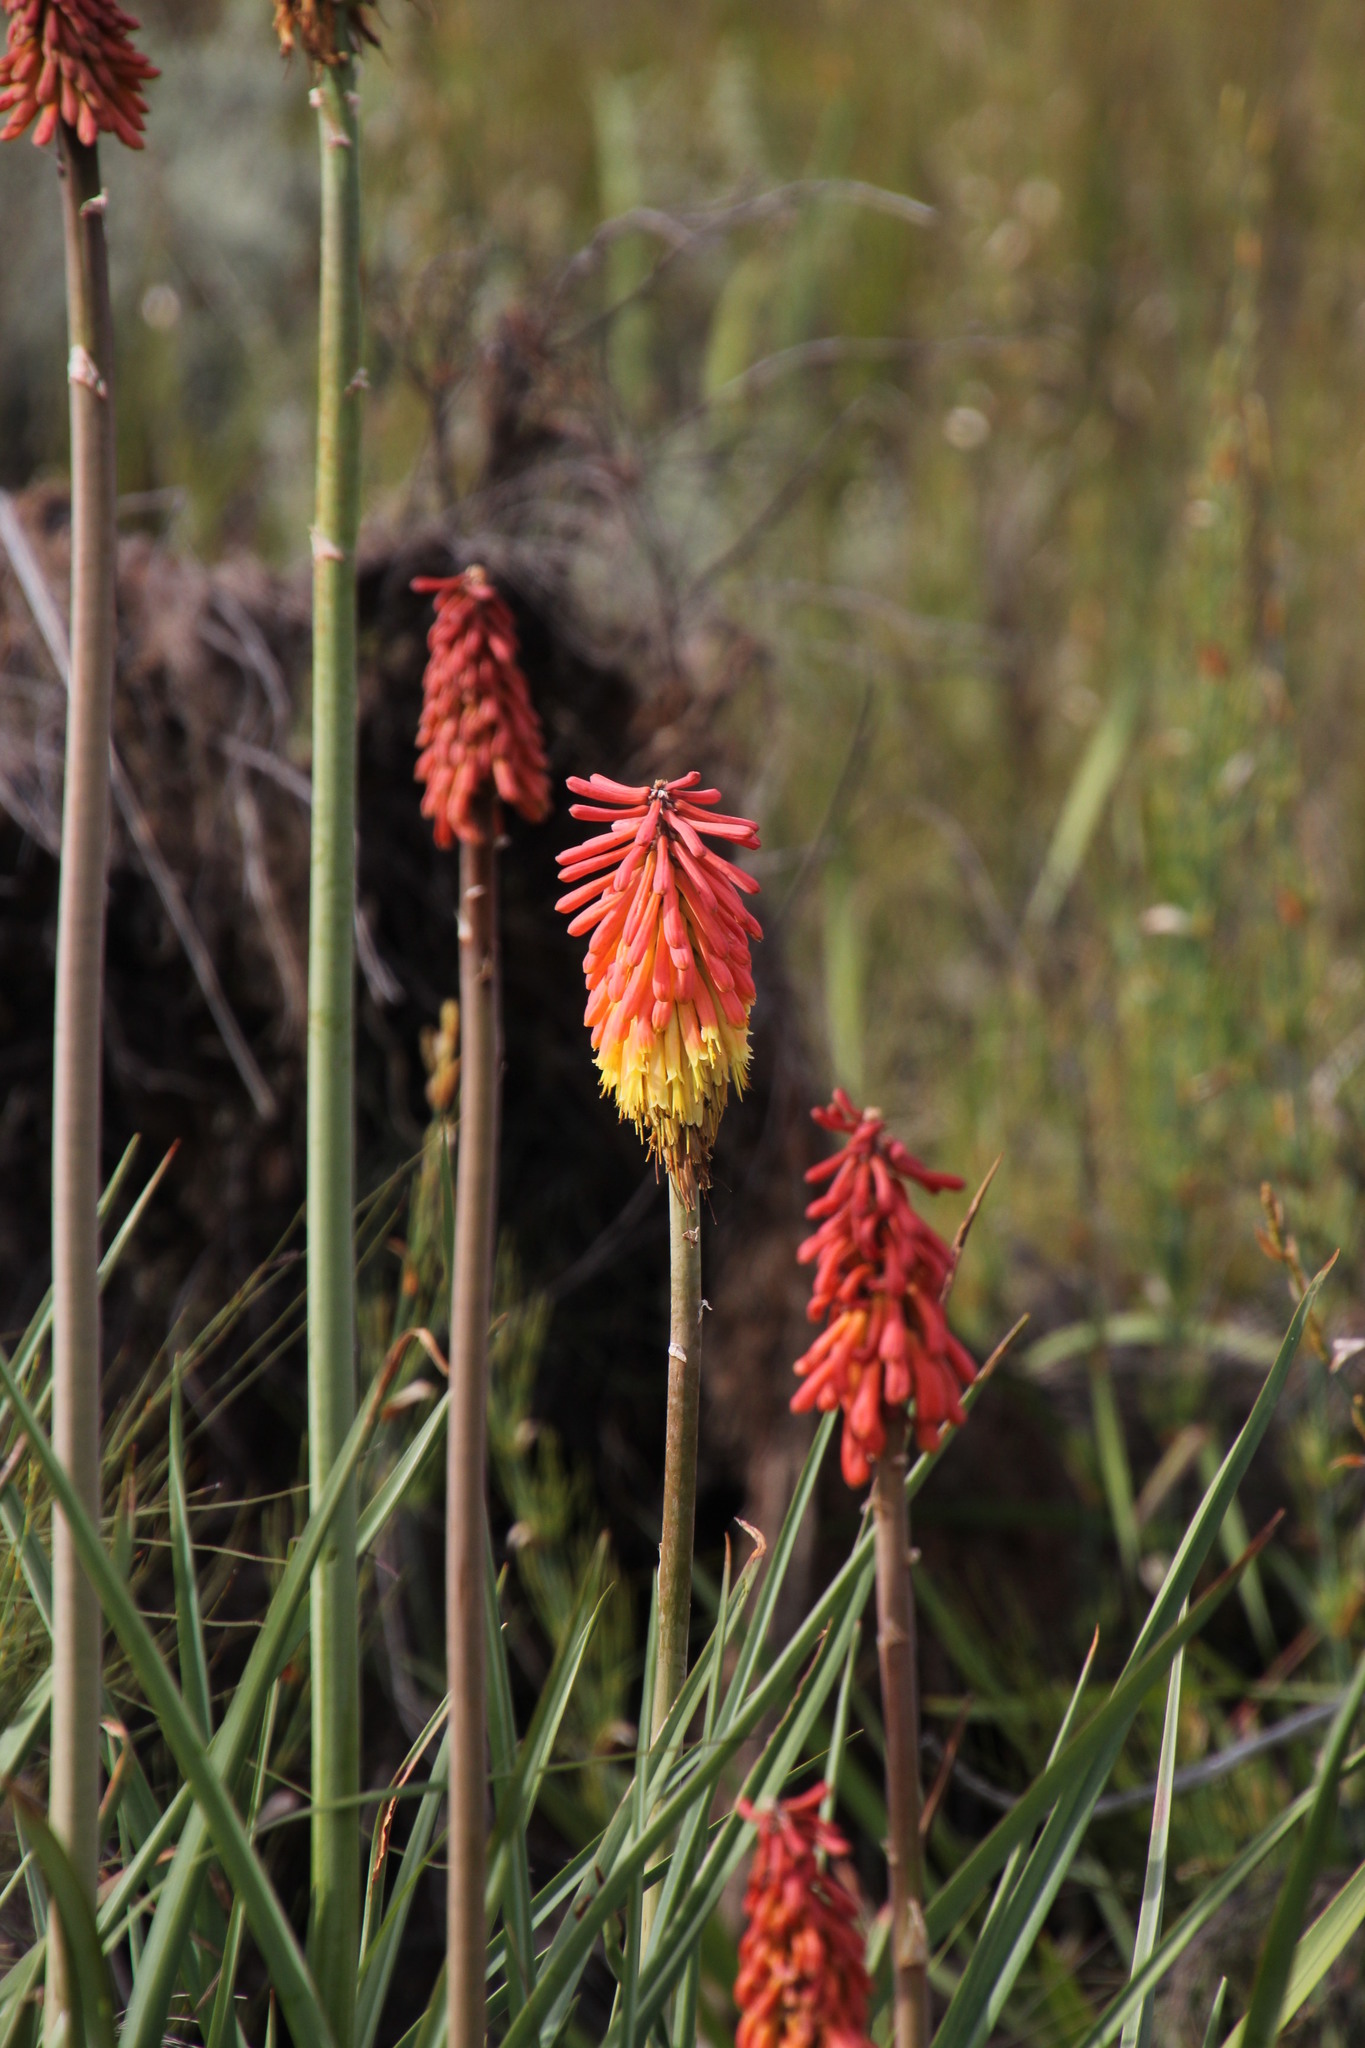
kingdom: Plantae
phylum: Tracheophyta
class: Liliopsida
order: Asparagales
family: Asphodelaceae
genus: Kniphofia
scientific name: Kniphofia uvaria
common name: Red-hot-poker
